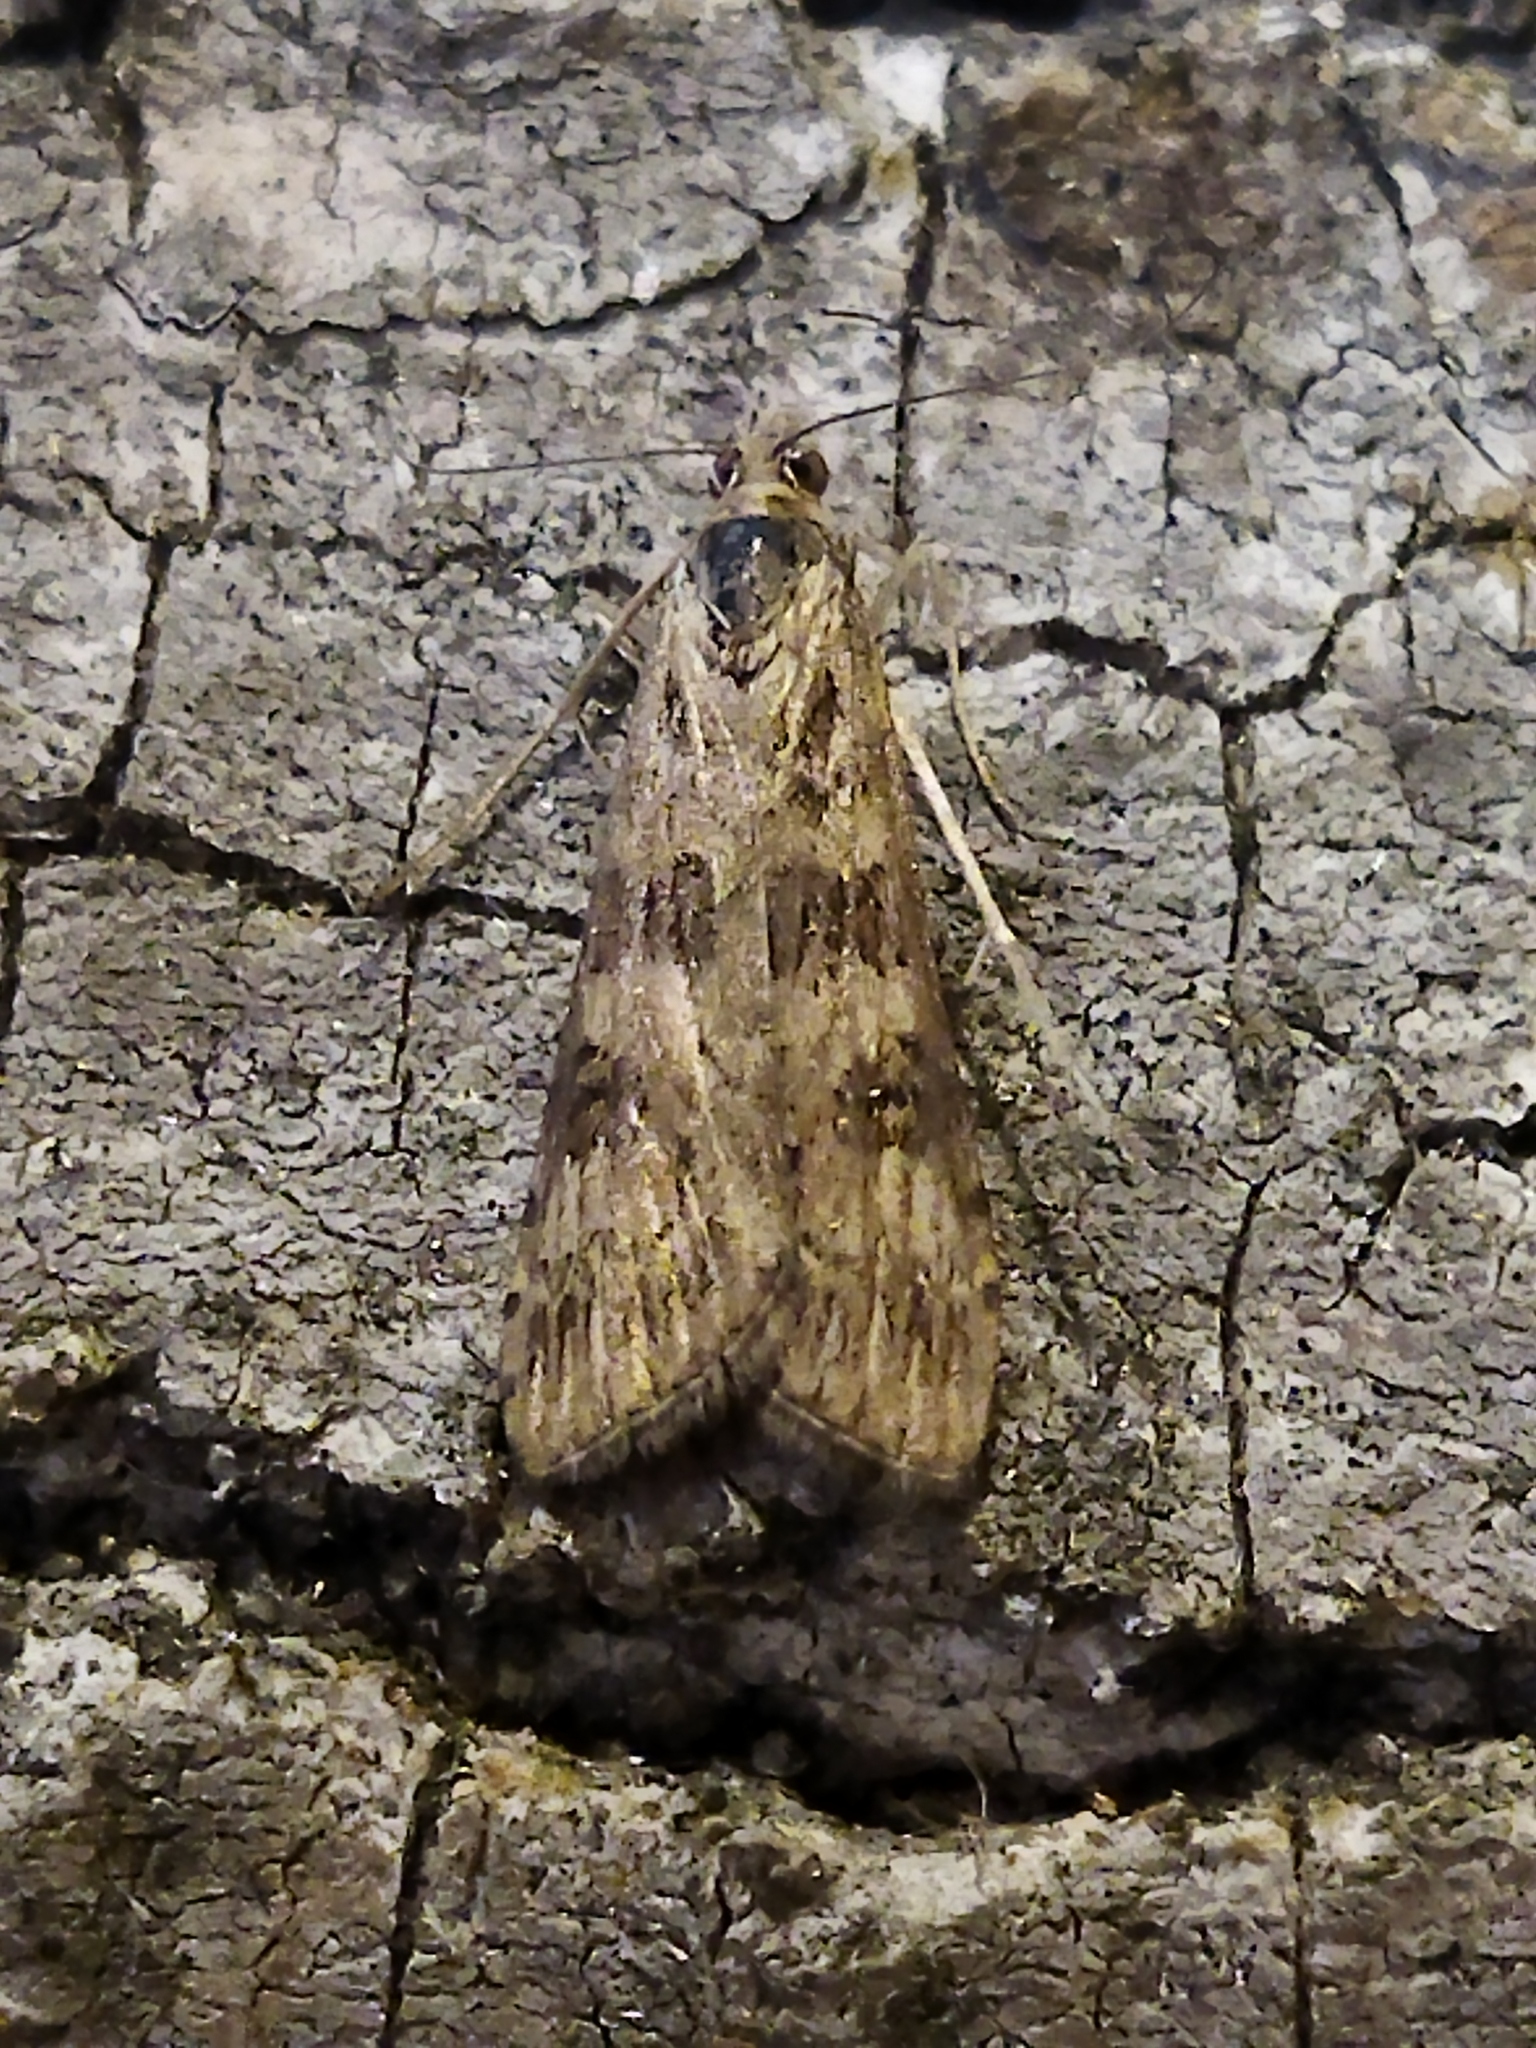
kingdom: Animalia
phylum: Arthropoda
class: Insecta
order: Lepidoptera
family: Crambidae
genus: Nomophila
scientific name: Nomophila noctuella
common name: Rush veneer
